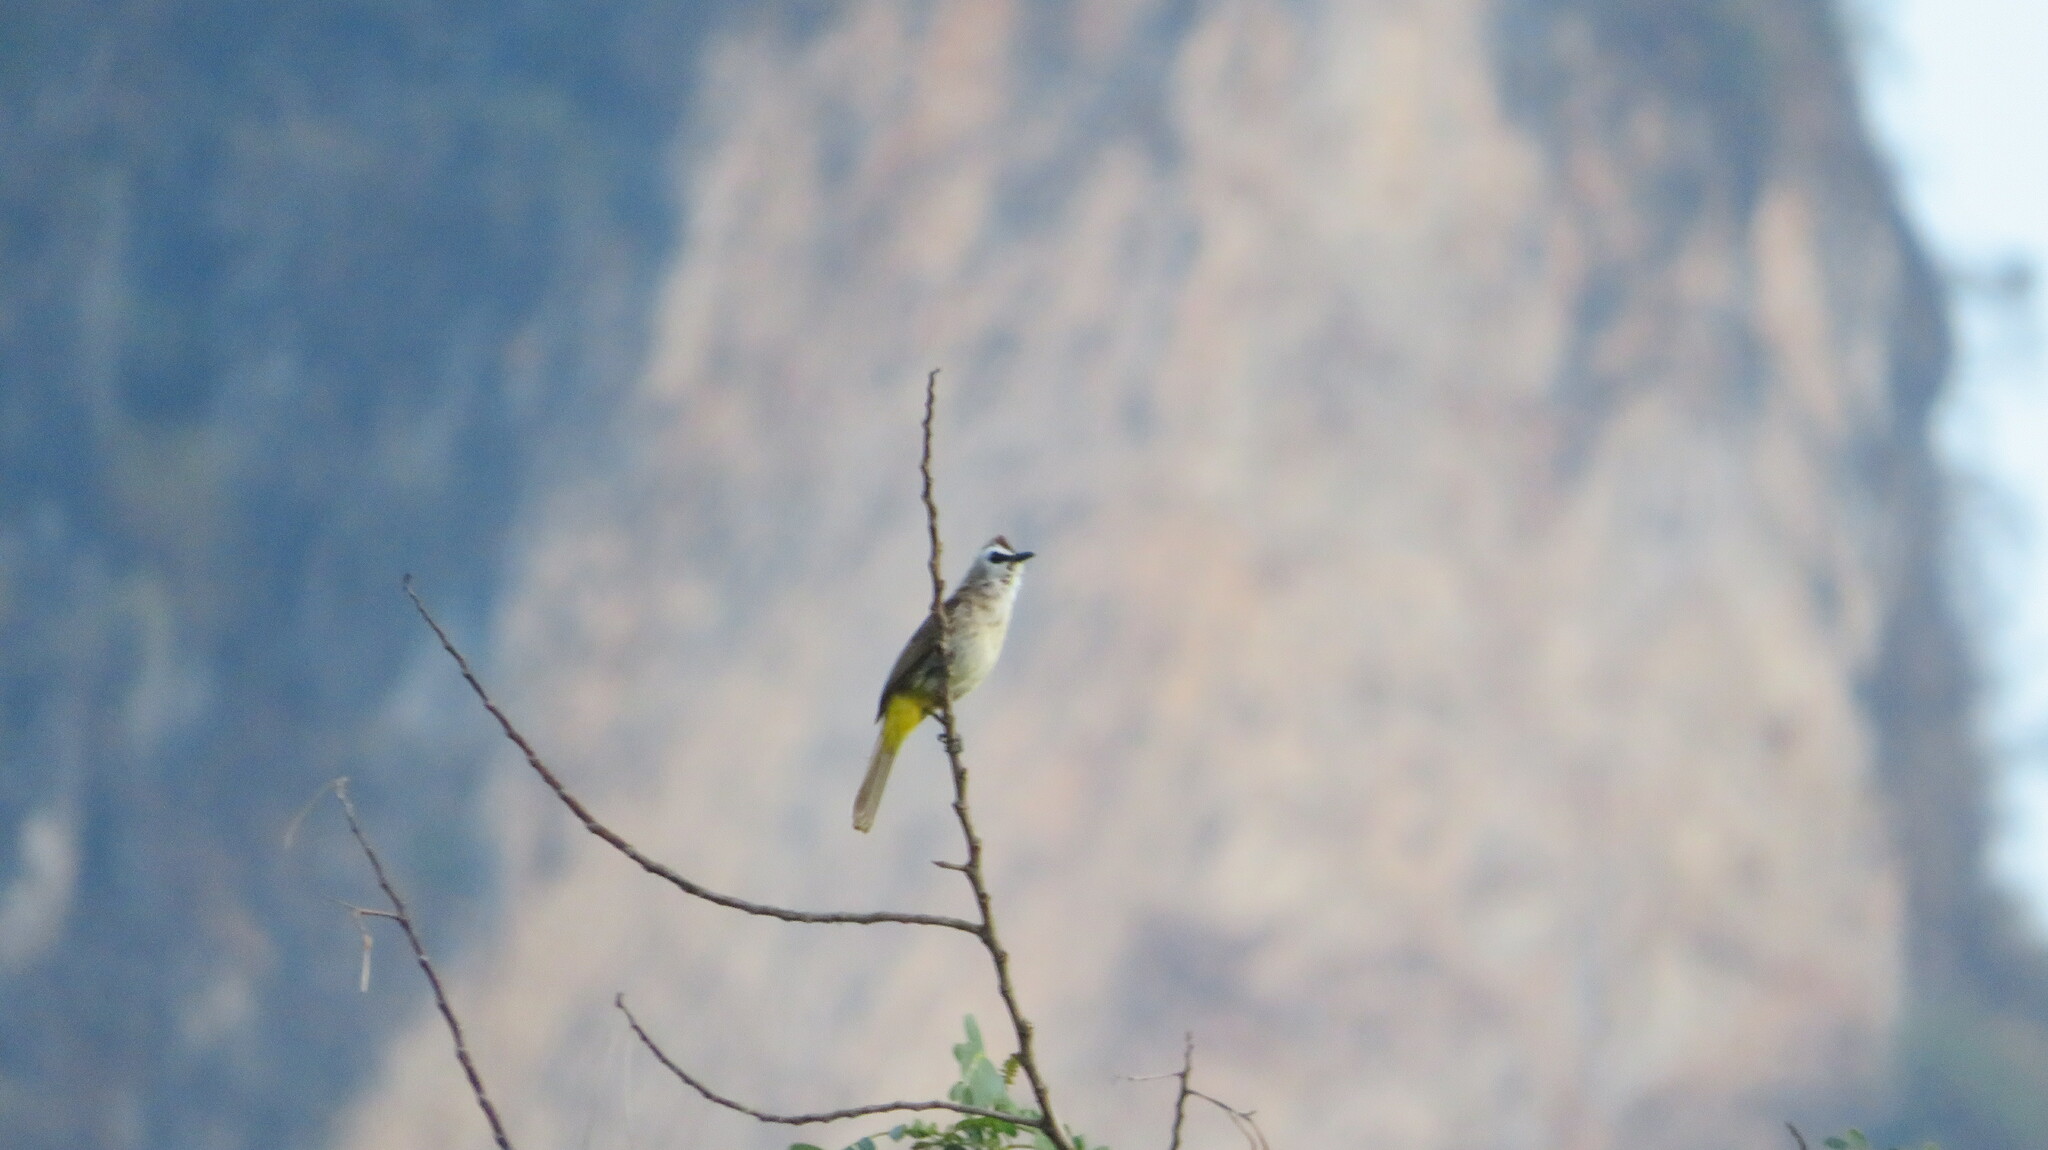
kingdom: Animalia
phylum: Chordata
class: Aves
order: Passeriformes
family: Pycnonotidae
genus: Pycnonotus
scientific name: Pycnonotus goiavier
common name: Yellow-vented bulbul
